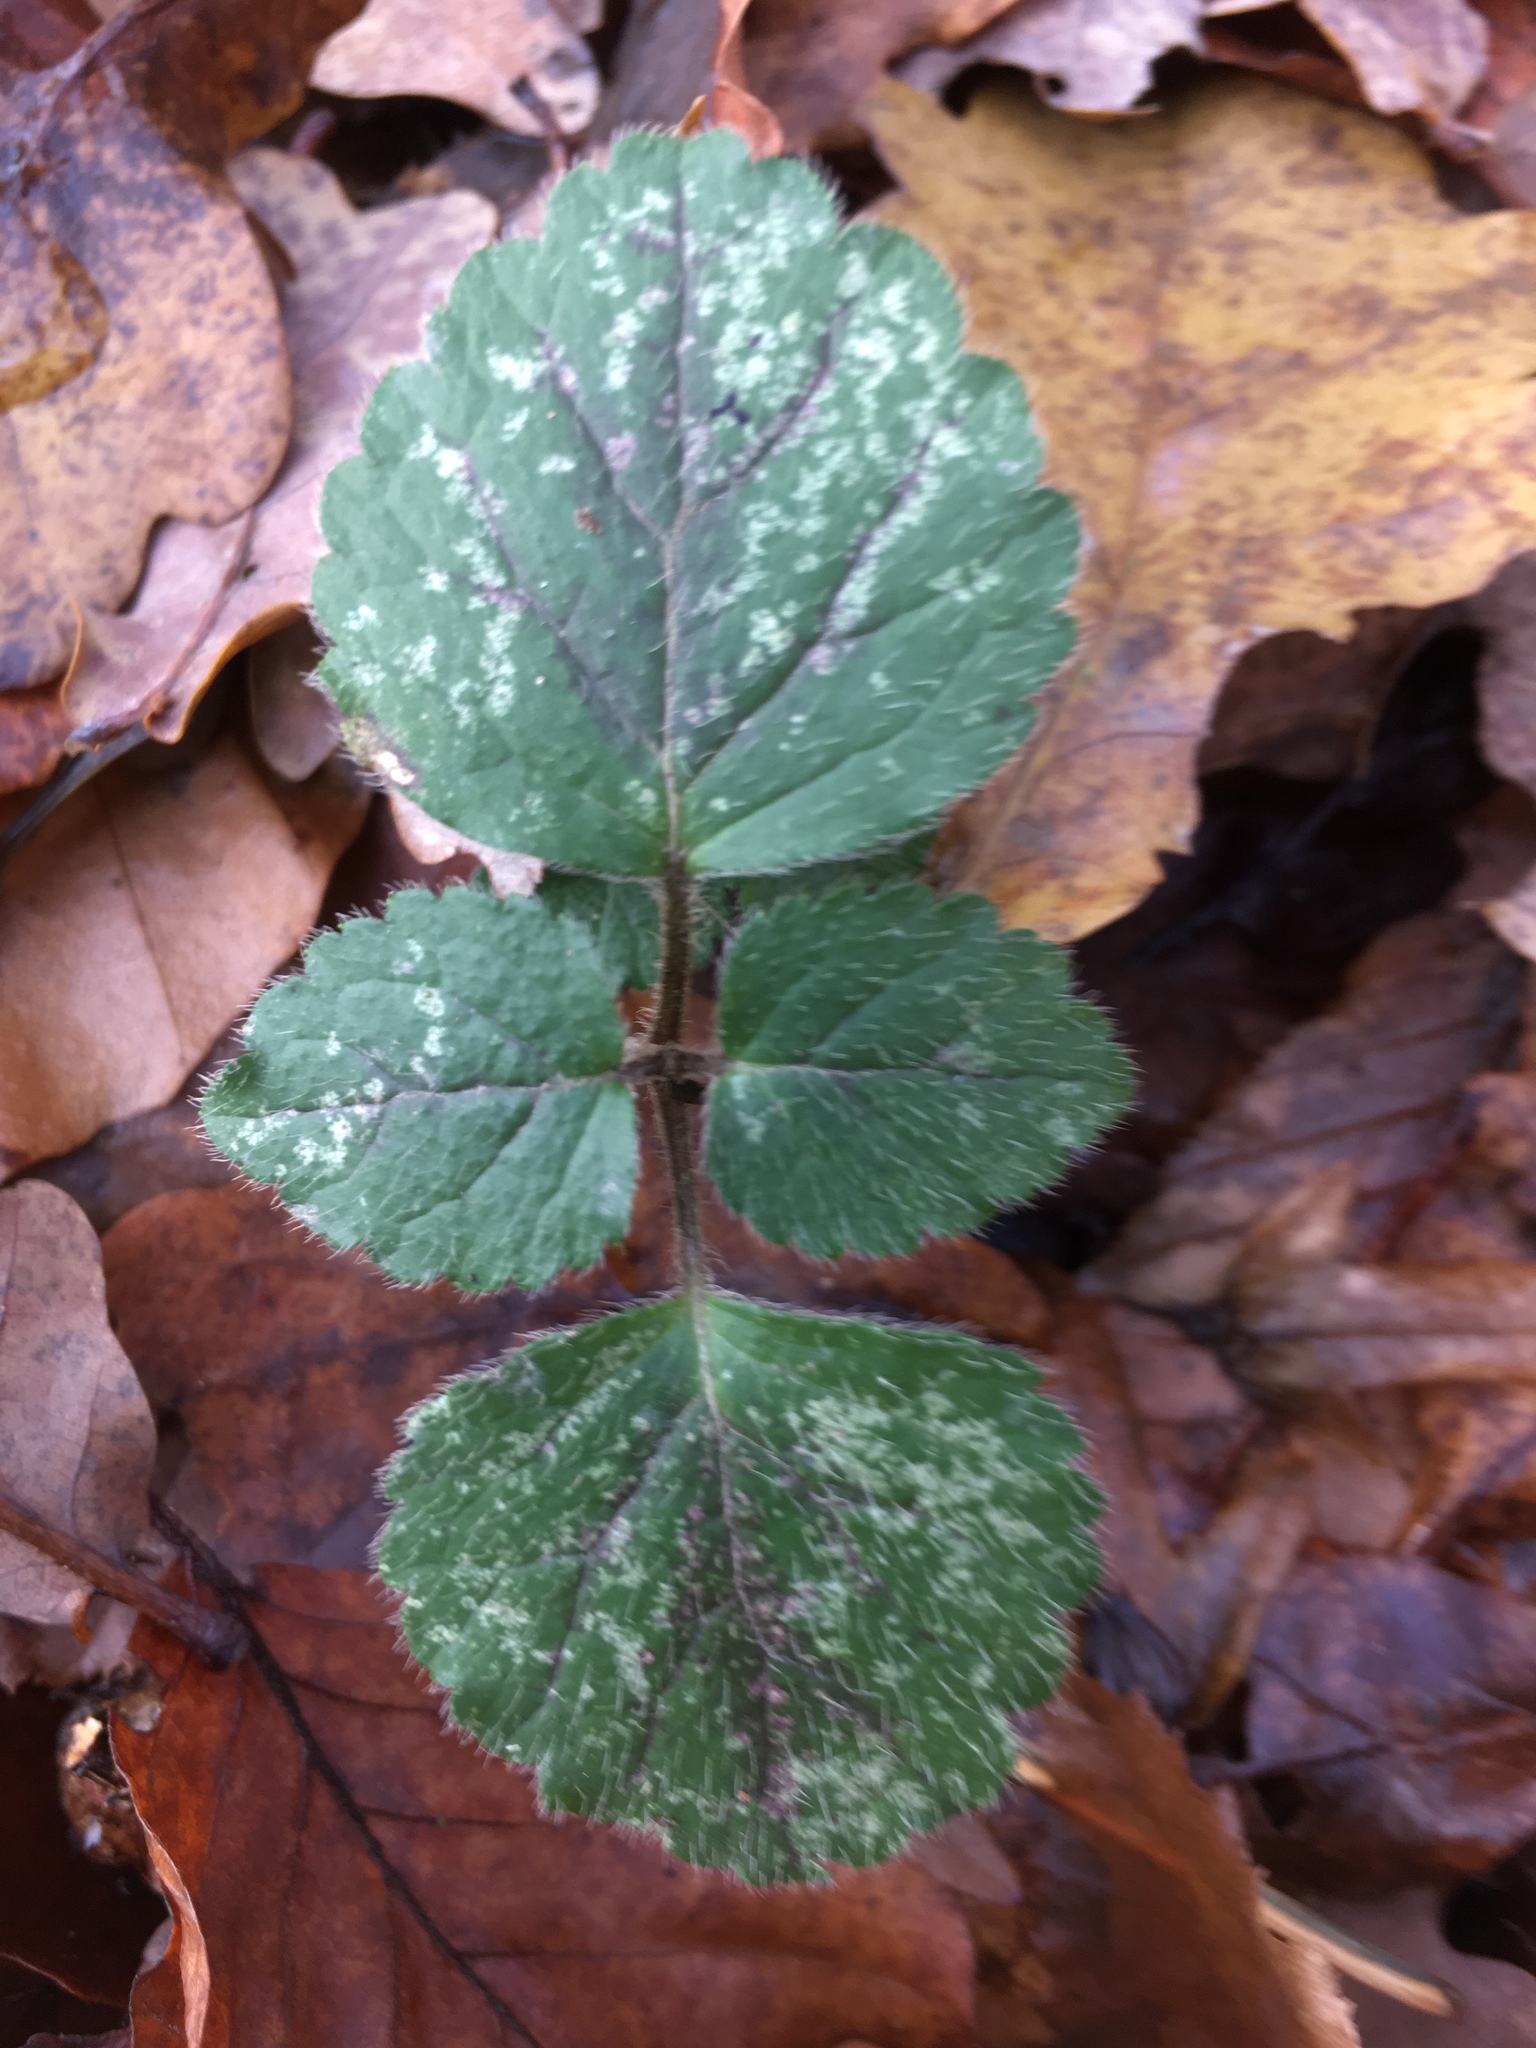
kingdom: Plantae
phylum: Tracheophyta
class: Magnoliopsida
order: Lamiales
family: Lamiaceae
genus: Lamium
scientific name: Lamium galeobdolon
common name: Yellow archangel
